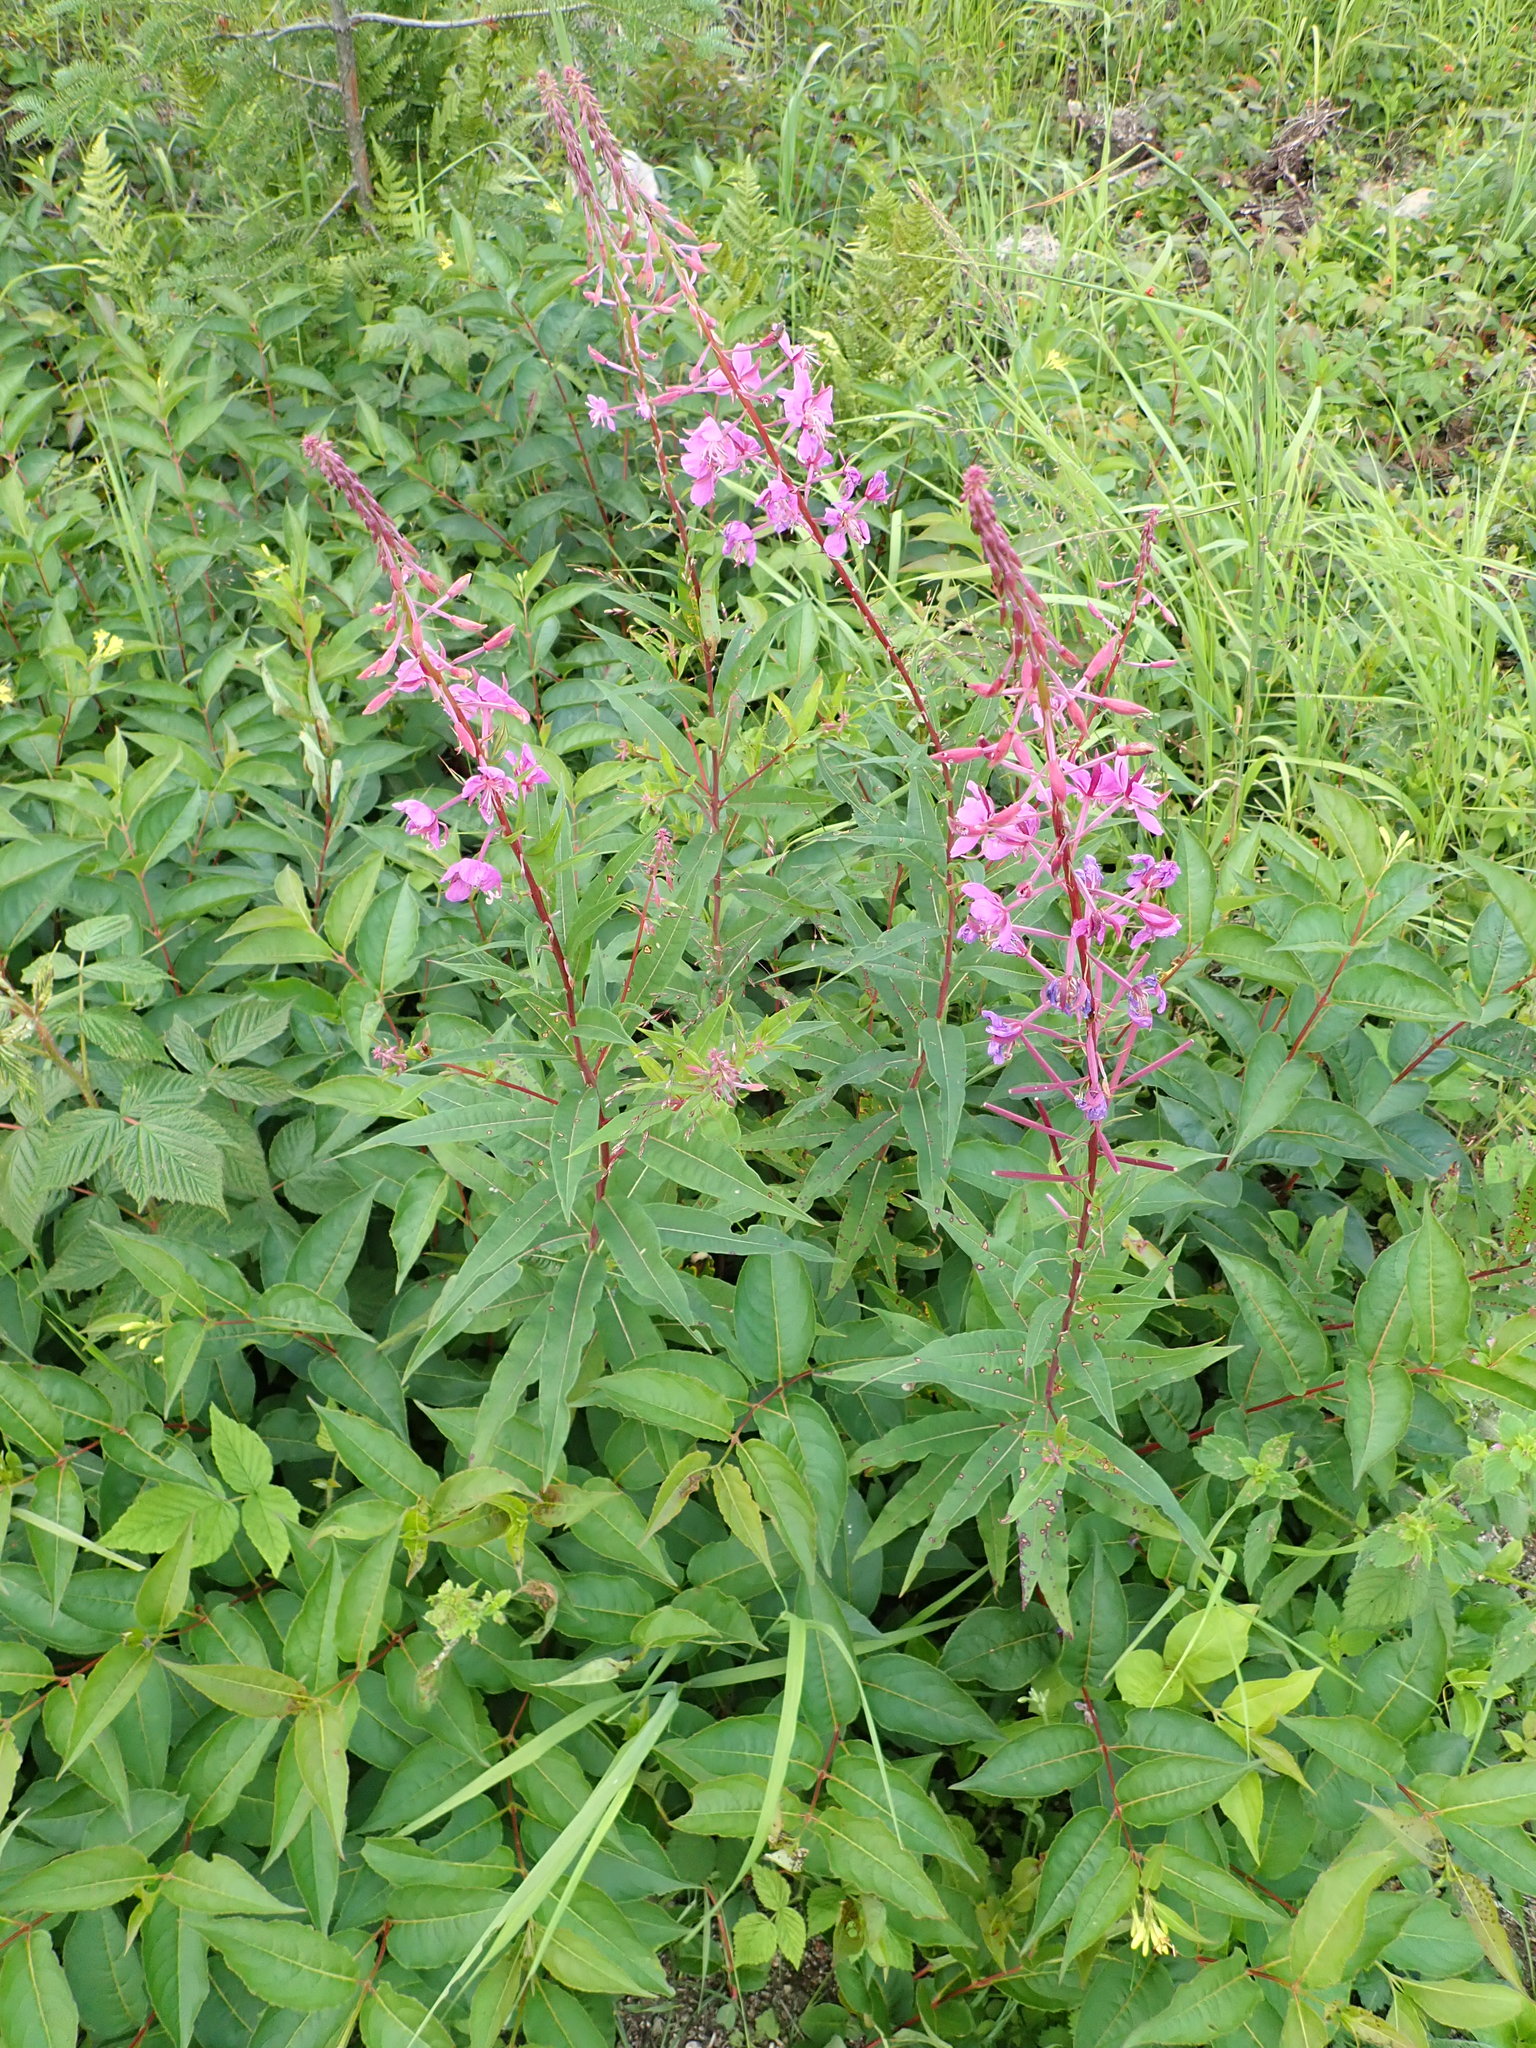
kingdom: Plantae
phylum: Tracheophyta
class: Magnoliopsida
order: Myrtales
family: Onagraceae
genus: Chamaenerion
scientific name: Chamaenerion angustifolium
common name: Fireweed
